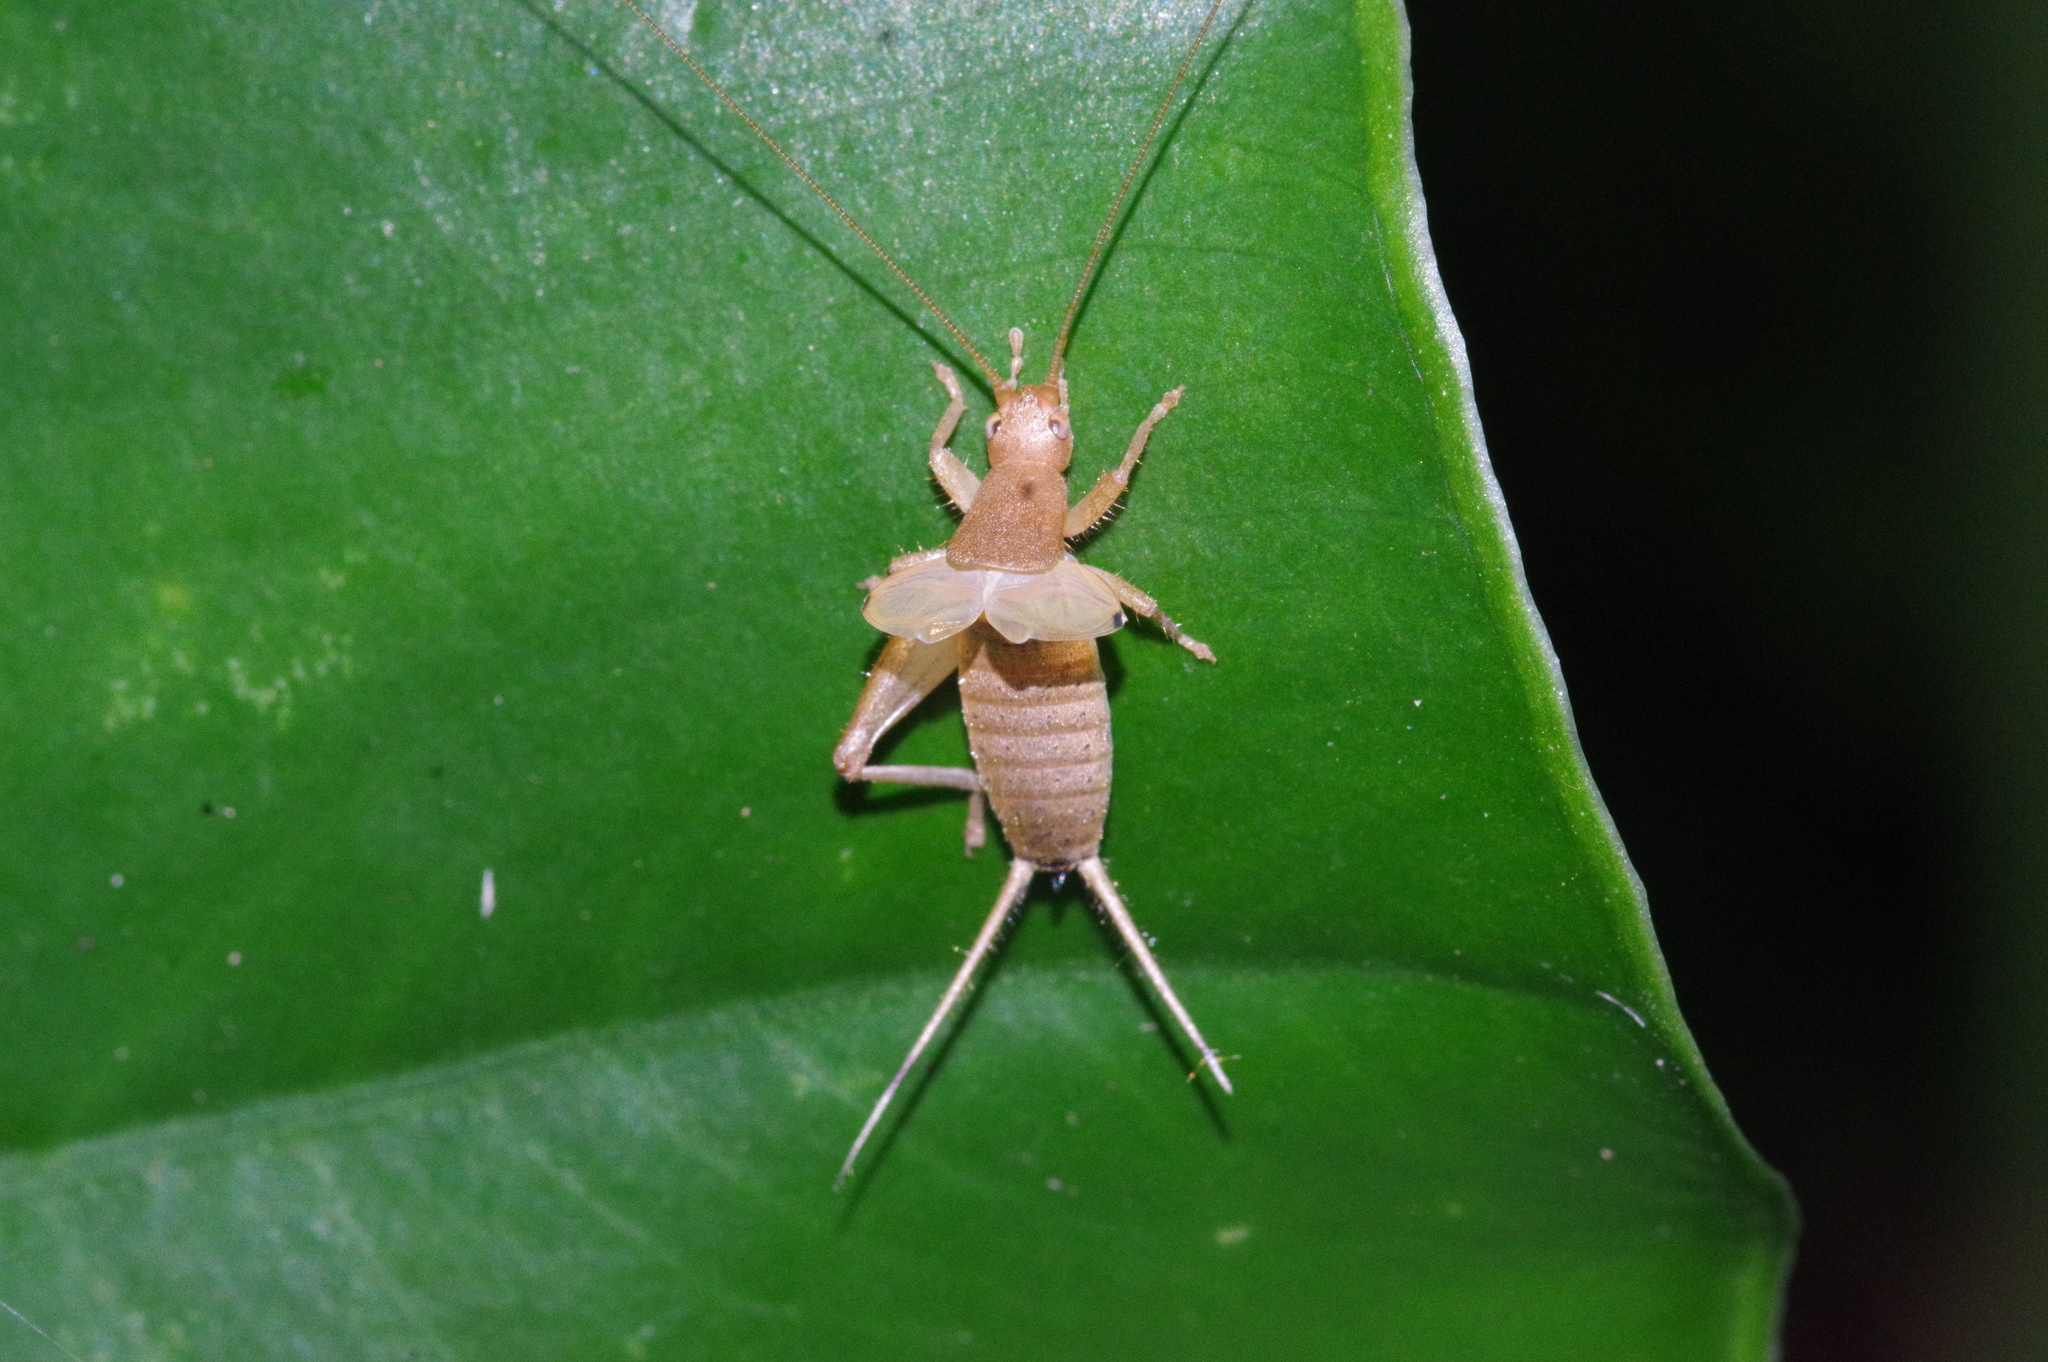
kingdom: Animalia
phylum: Arthropoda
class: Insecta
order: Orthoptera
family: Mogoplistidae
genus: Ornebius
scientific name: Ornebius bimaculatus
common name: Cricket
